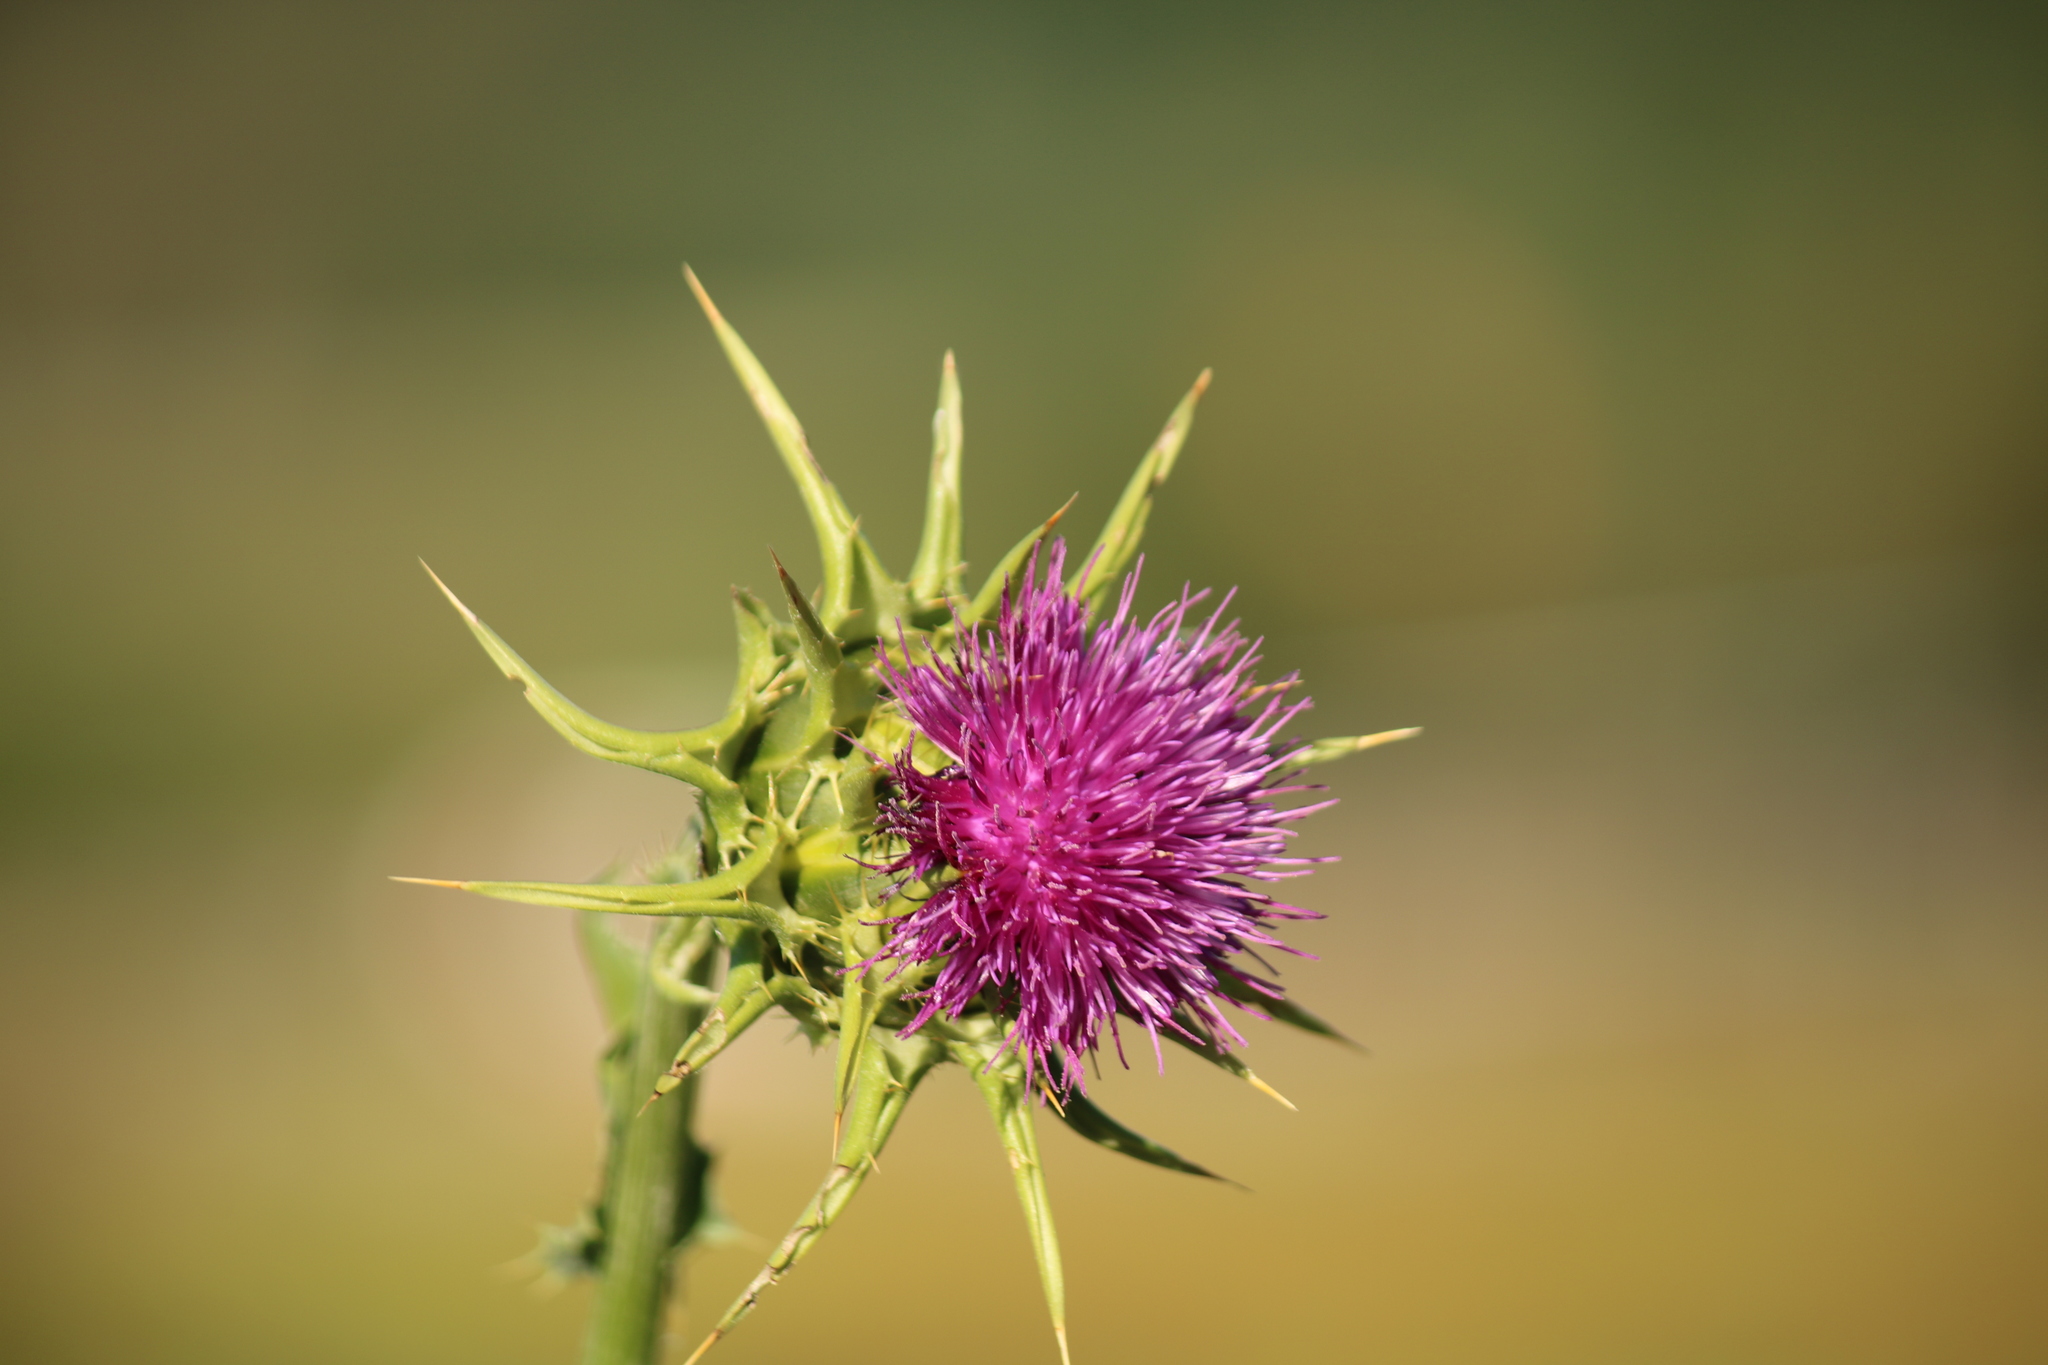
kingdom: Plantae
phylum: Tracheophyta
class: Magnoliopsida
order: Asterales
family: Asteraceae
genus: Silybum
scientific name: Silybum marianum
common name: Milk thistle
